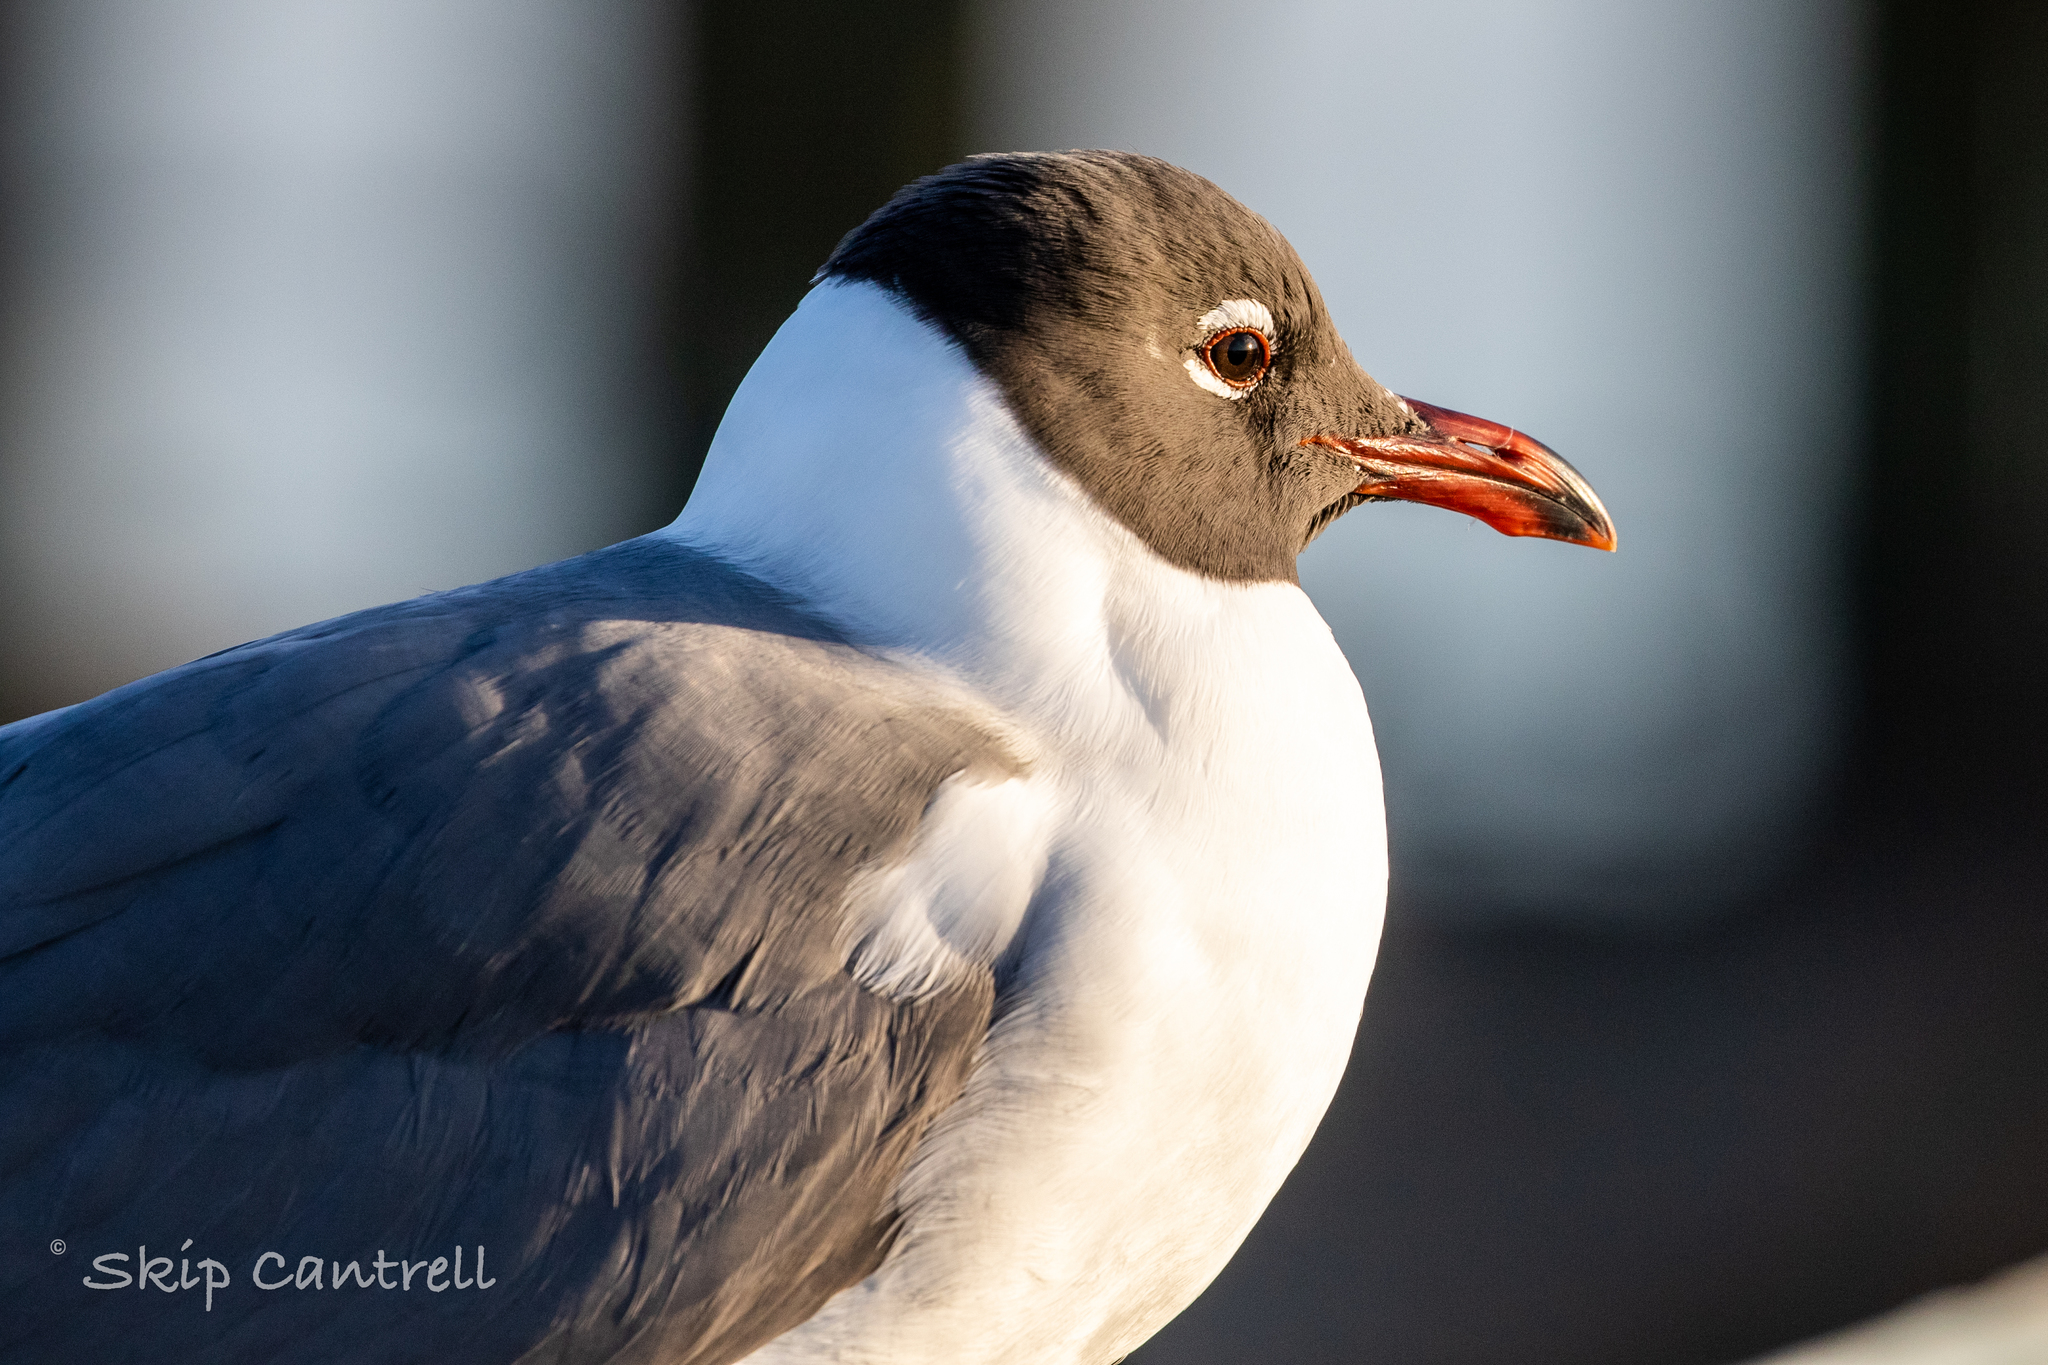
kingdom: Animalia
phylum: Chordata
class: Aves
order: Charadriiformes
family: Laridae
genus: Leucophaeus
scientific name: Leucophaeus atricilla
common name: Laughing gull
